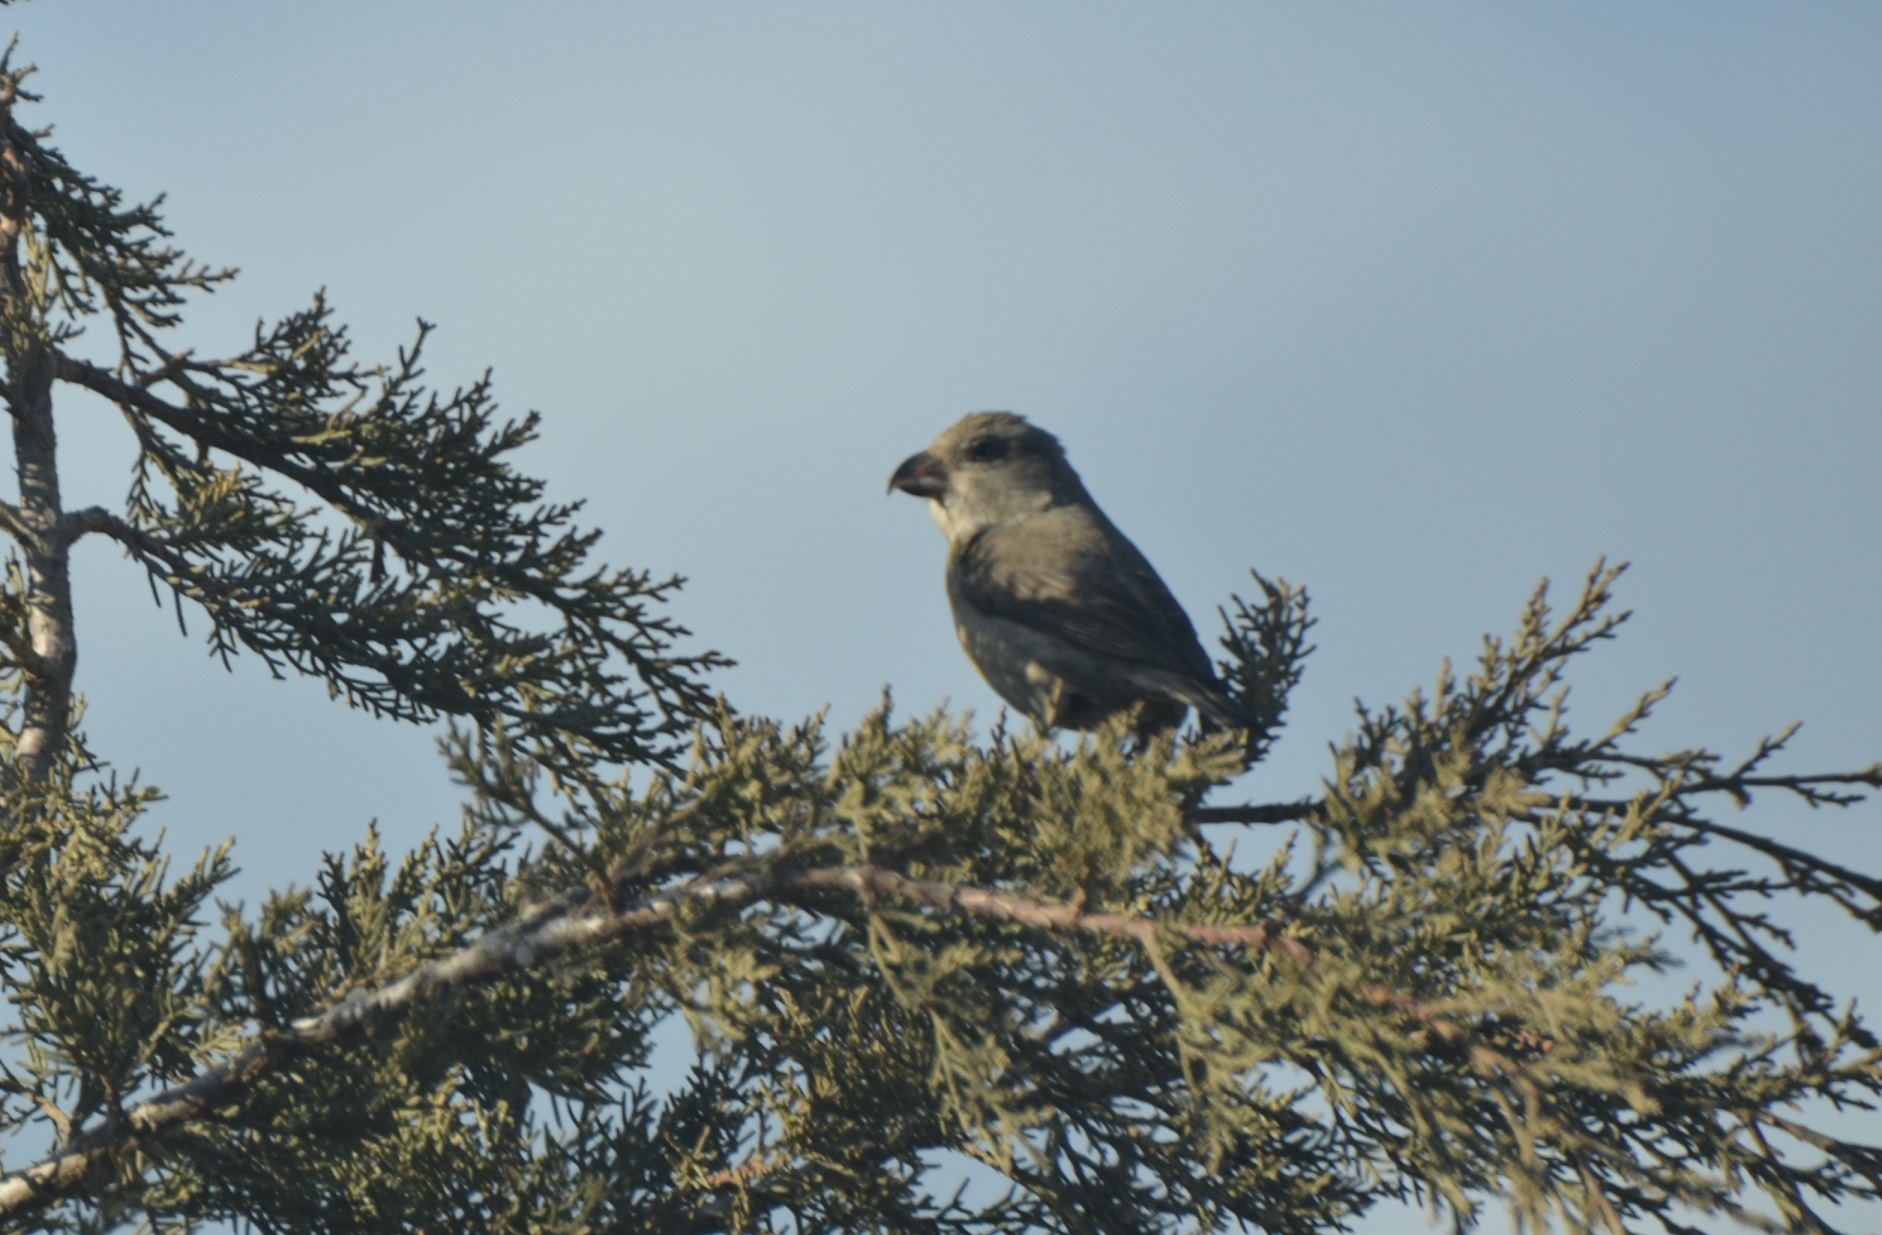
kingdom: Animalia
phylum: Chordata
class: Aves
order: Passeriformes
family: Fringillidae
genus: Loxia
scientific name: Loxia curvirostra
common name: Red crossbill
